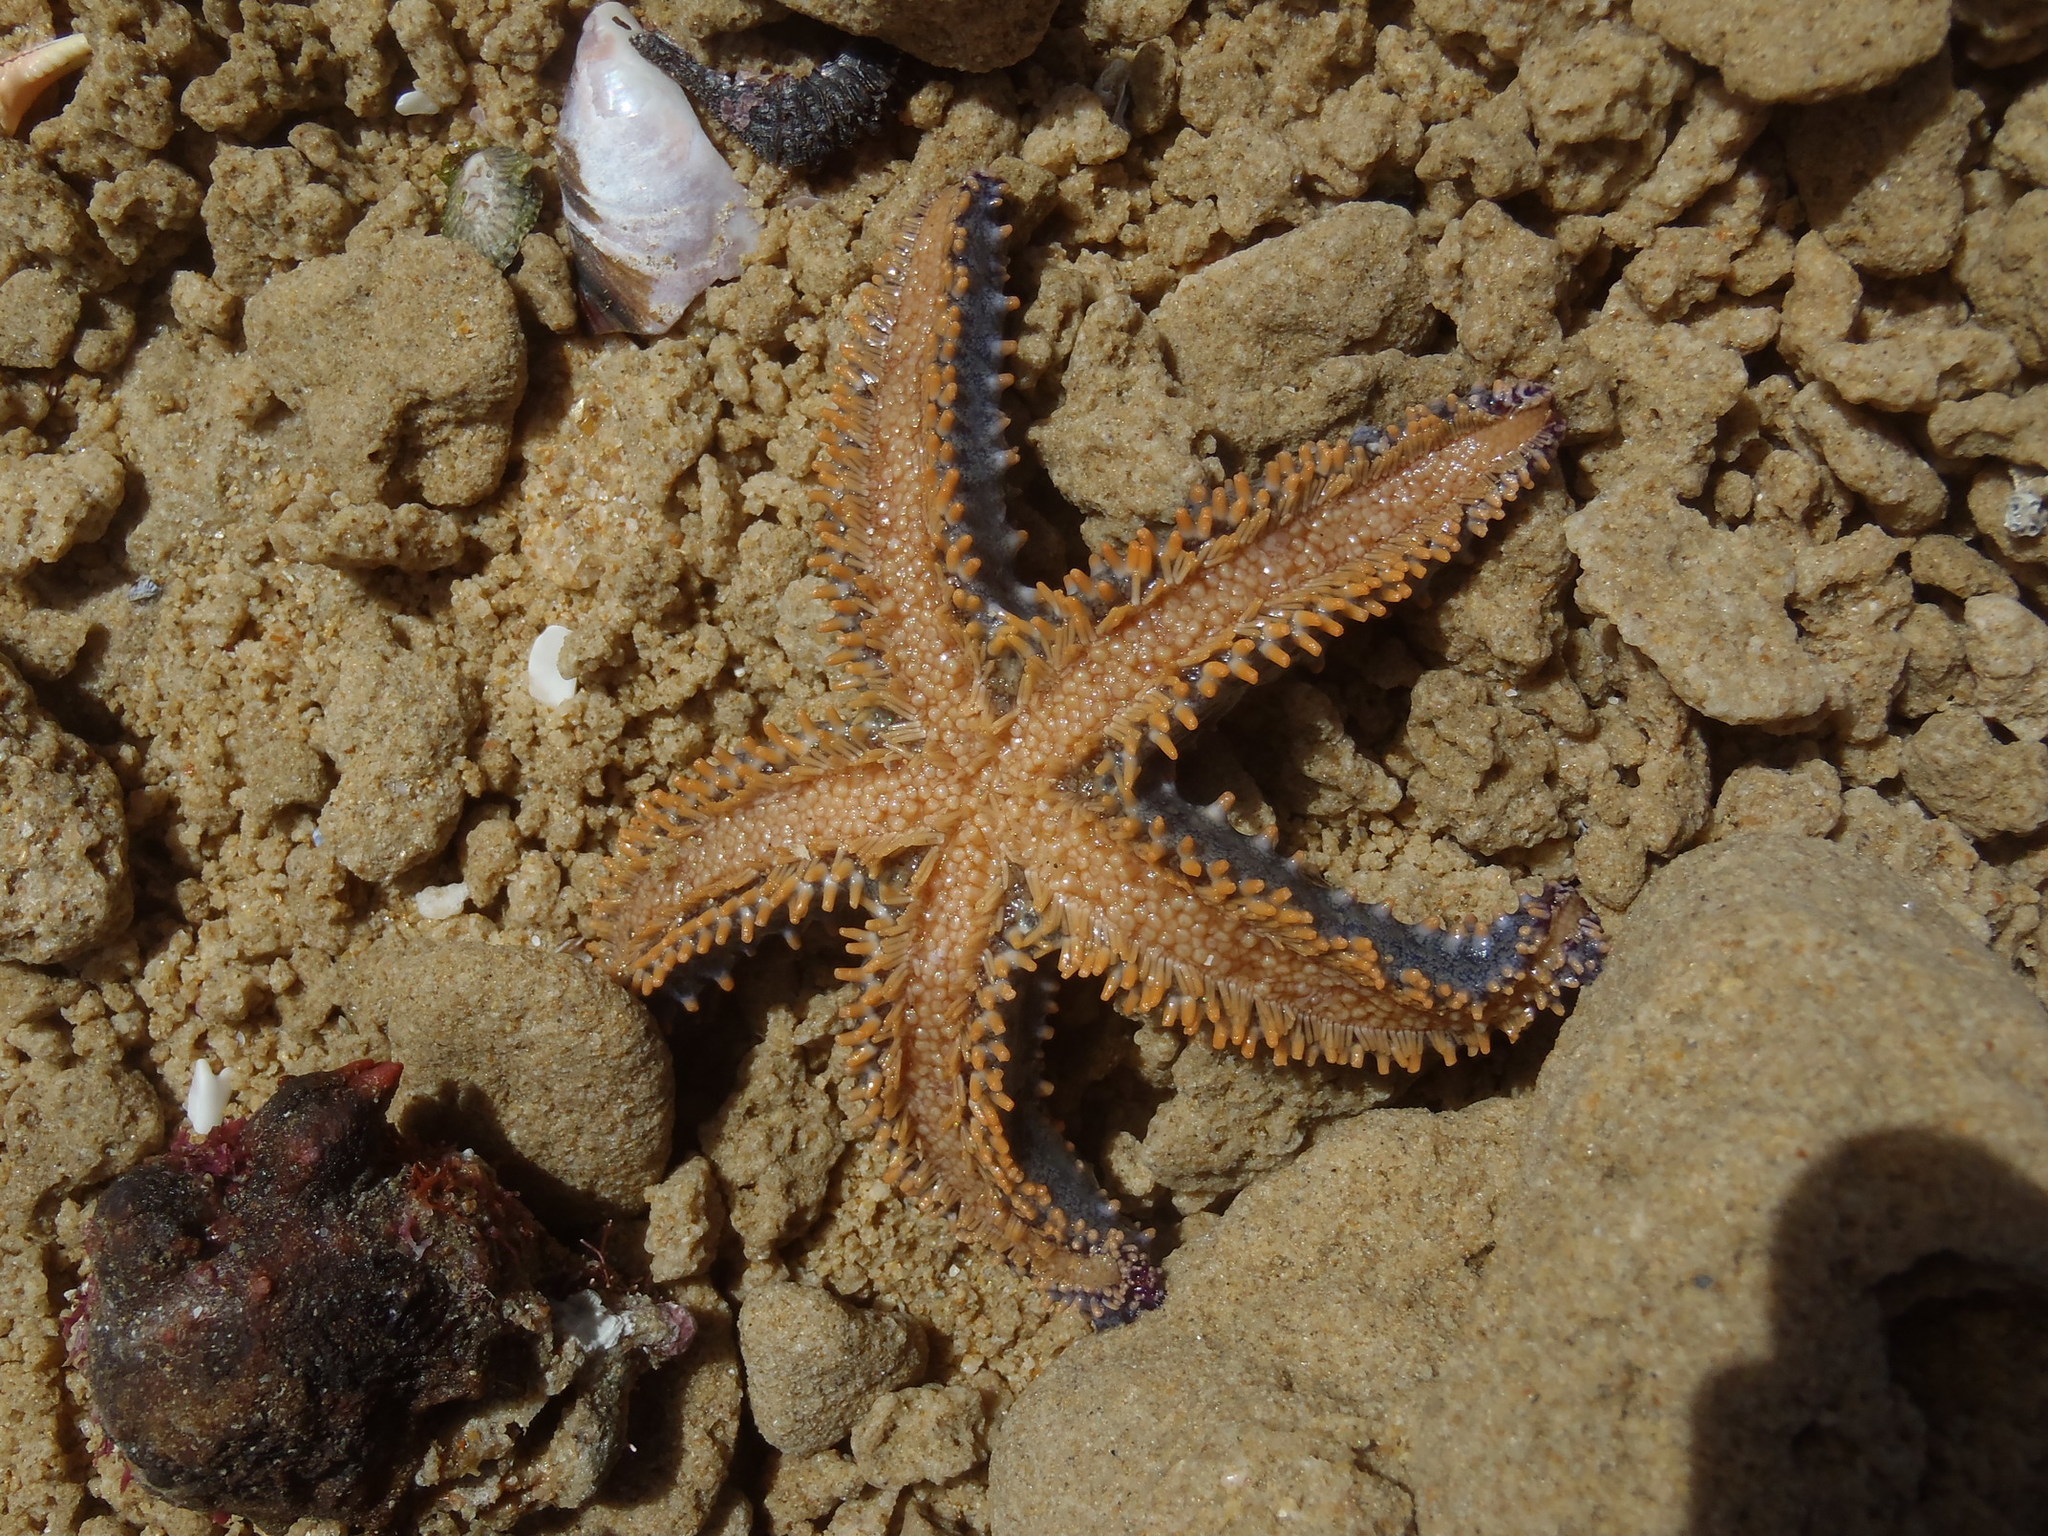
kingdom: Animalia
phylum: Echinodermata
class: Asteroidea
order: Forcipulatida
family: Asteriidae
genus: Marthasterias
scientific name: Marthasterias africana
